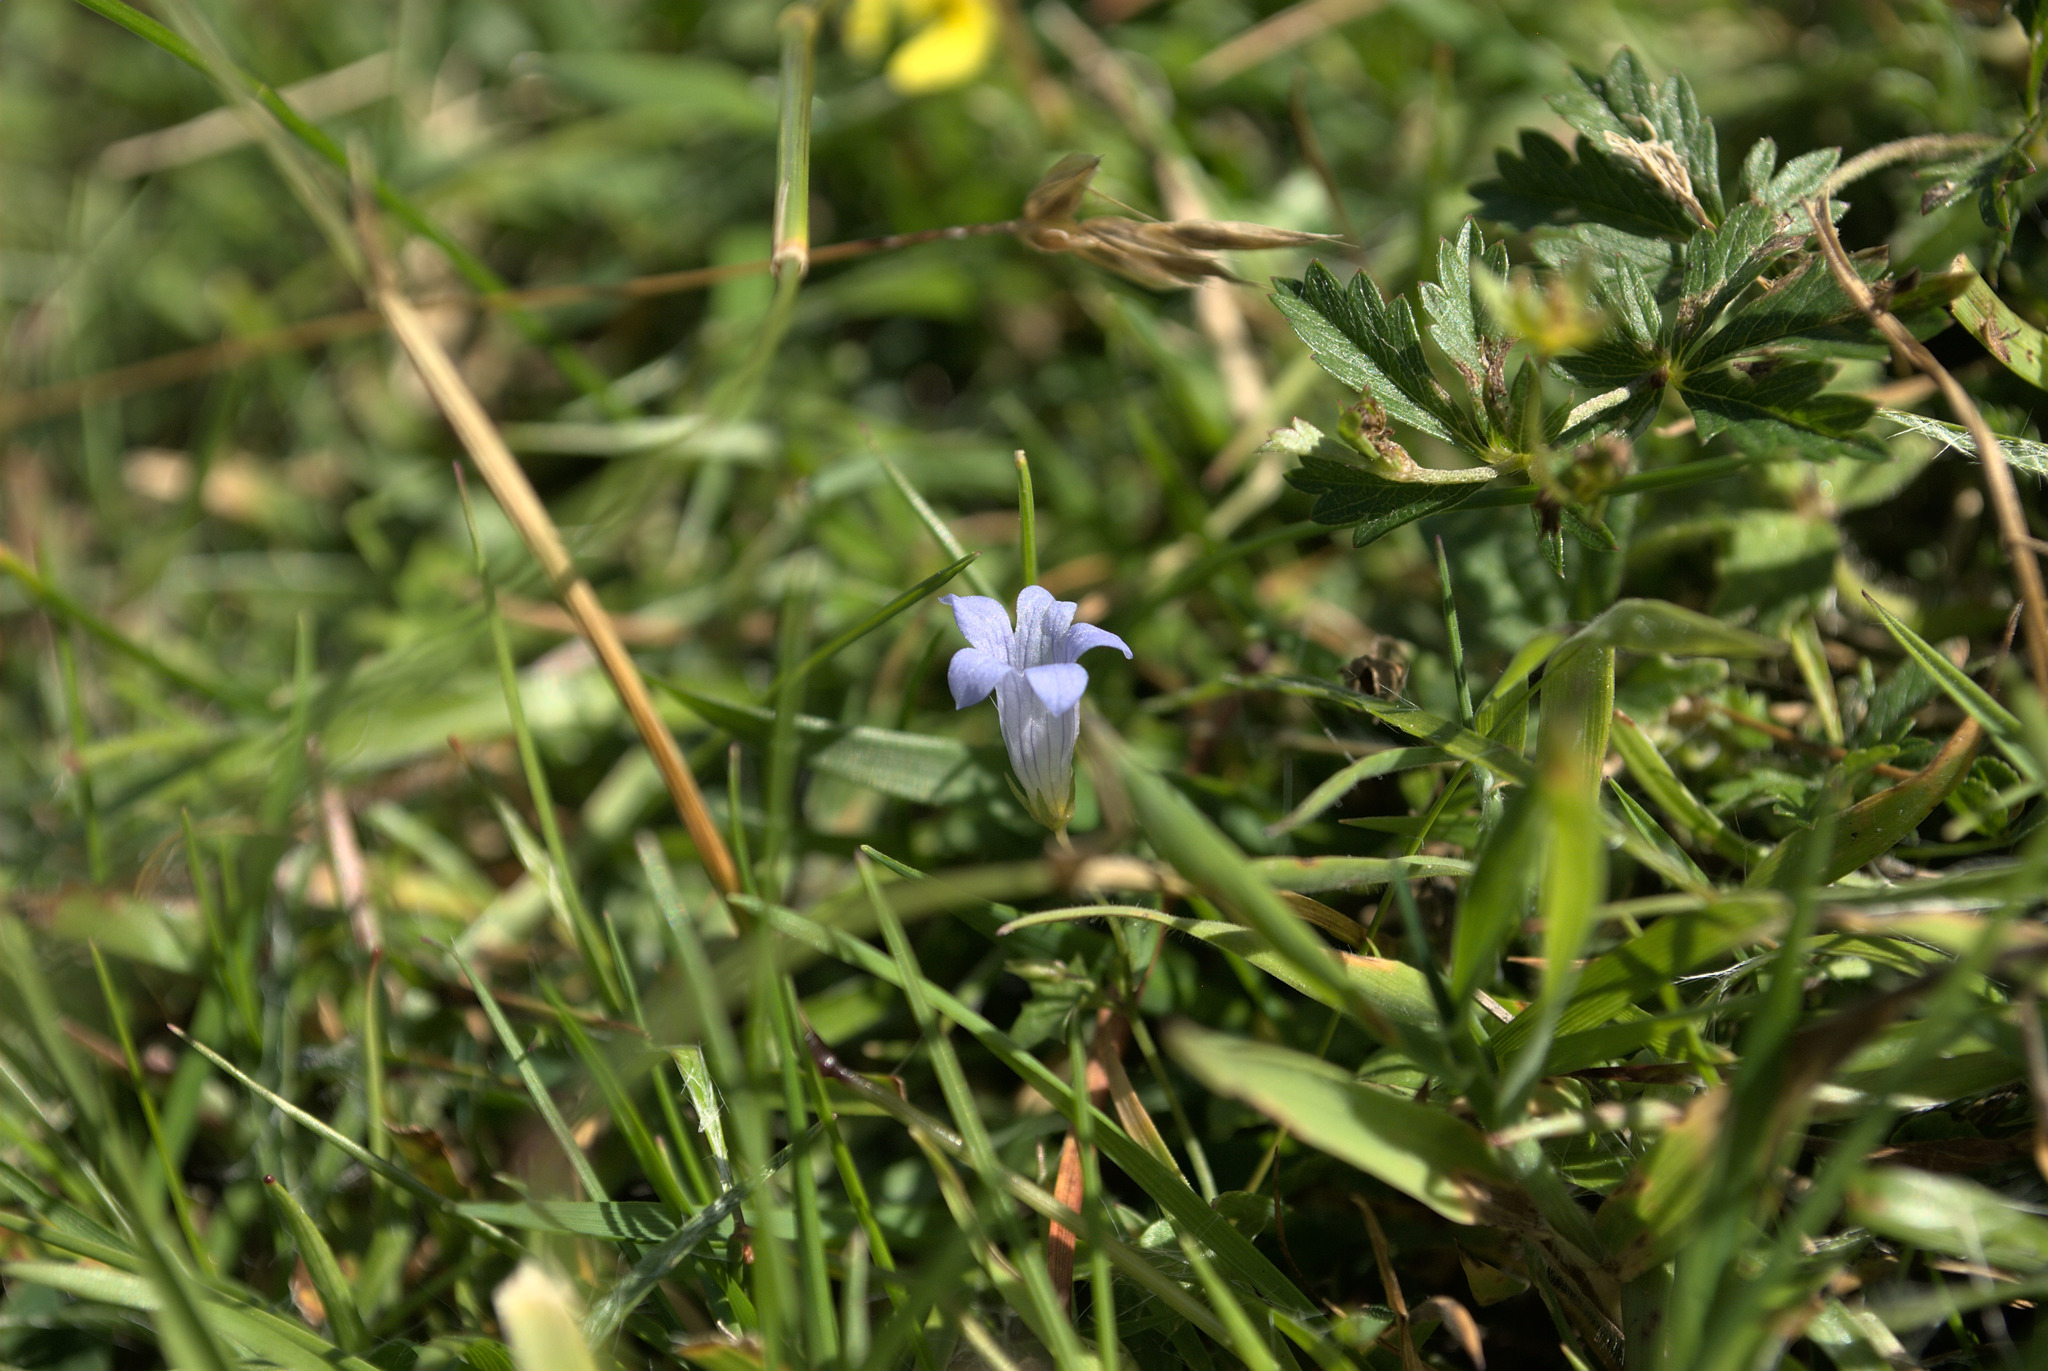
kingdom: Plantae
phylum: Tracheophyta
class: Magnoliopsida
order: Asterales
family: Campanulaceae
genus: Hesperocodon
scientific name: Hesperocodon hederaceus
